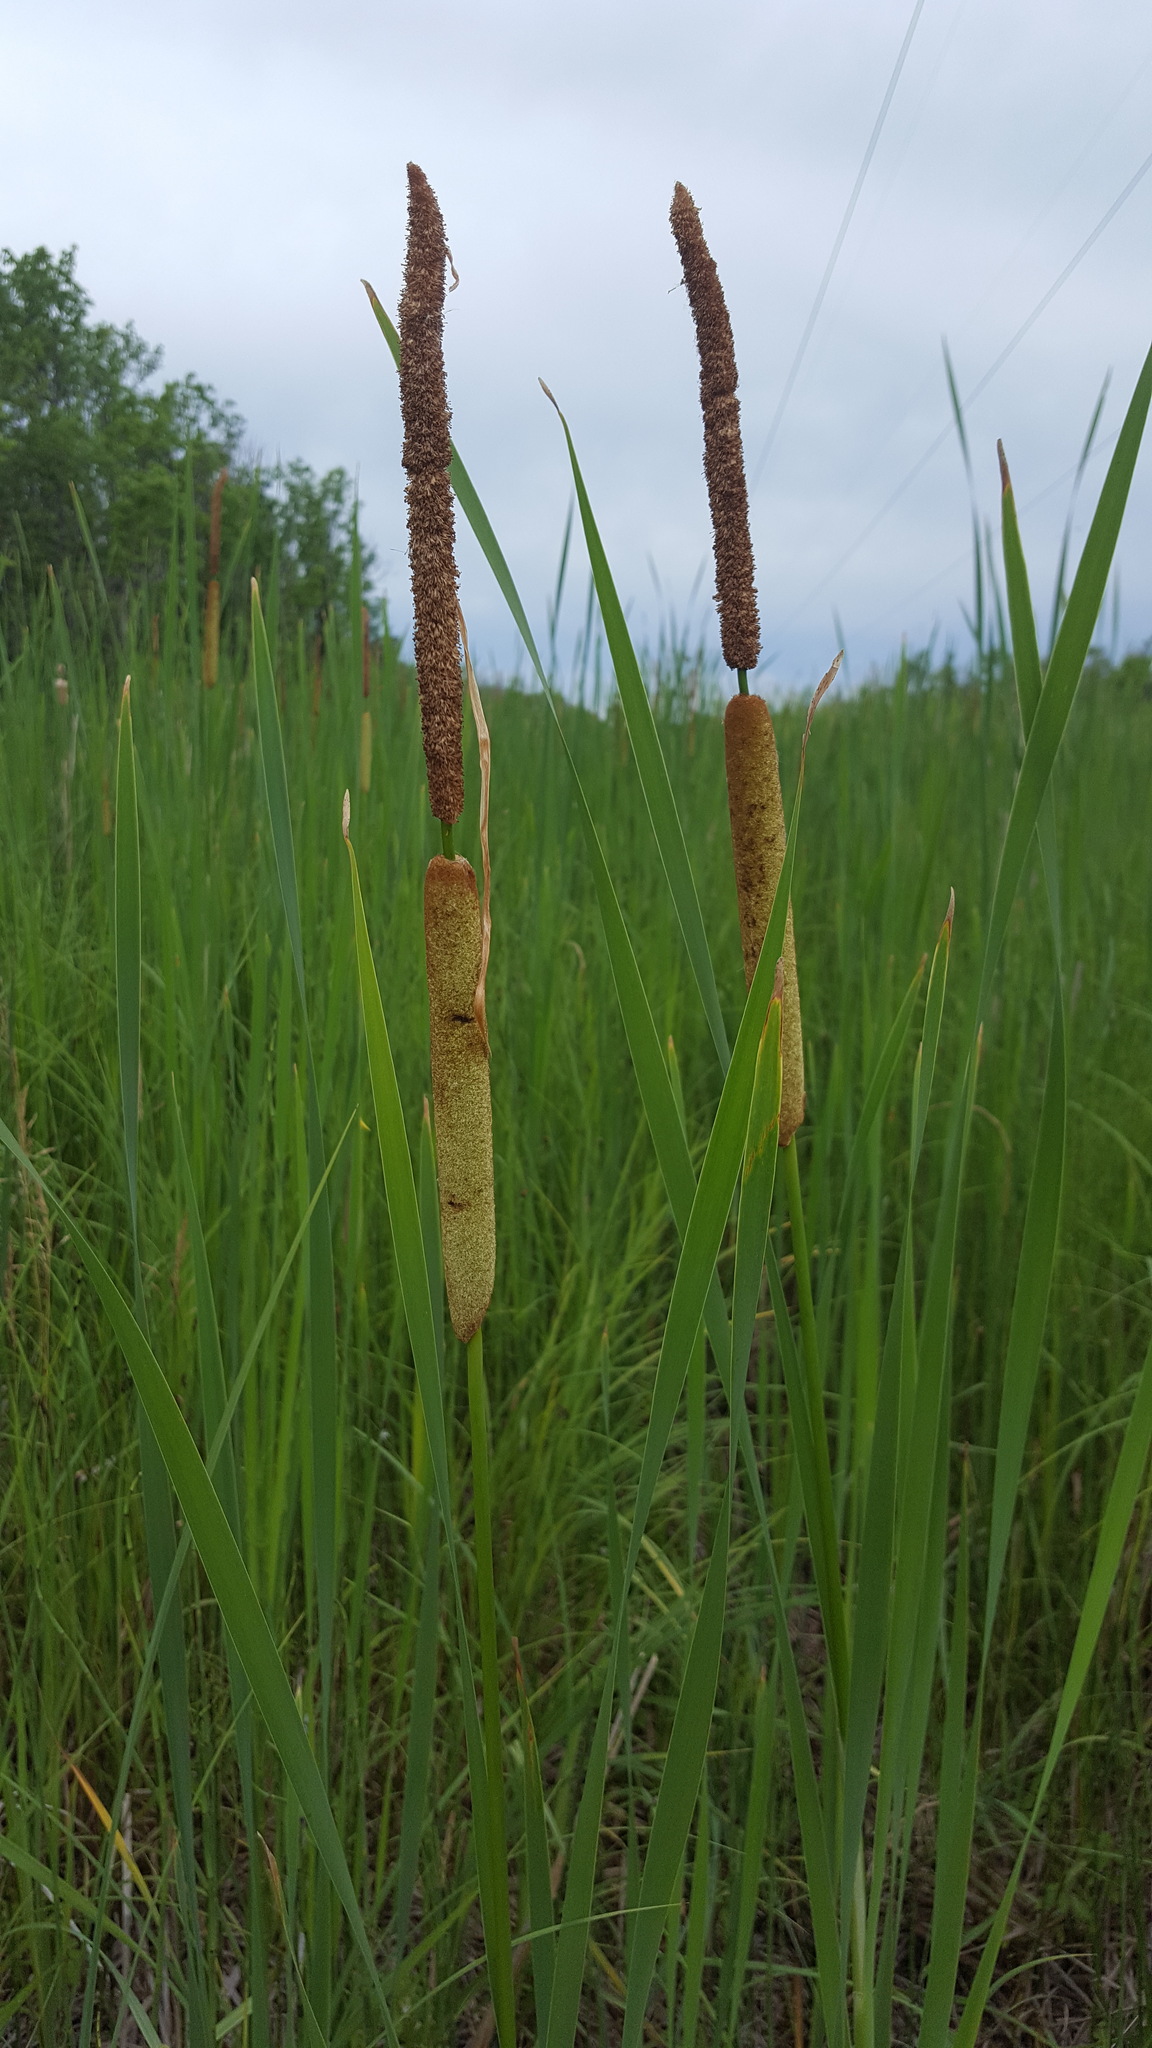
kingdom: Plantae
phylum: Tracheophyta
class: Liliopsida
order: Poales
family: Typhaceae
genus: Typha
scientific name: Typha angustifolia
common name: Lesser bulrush
